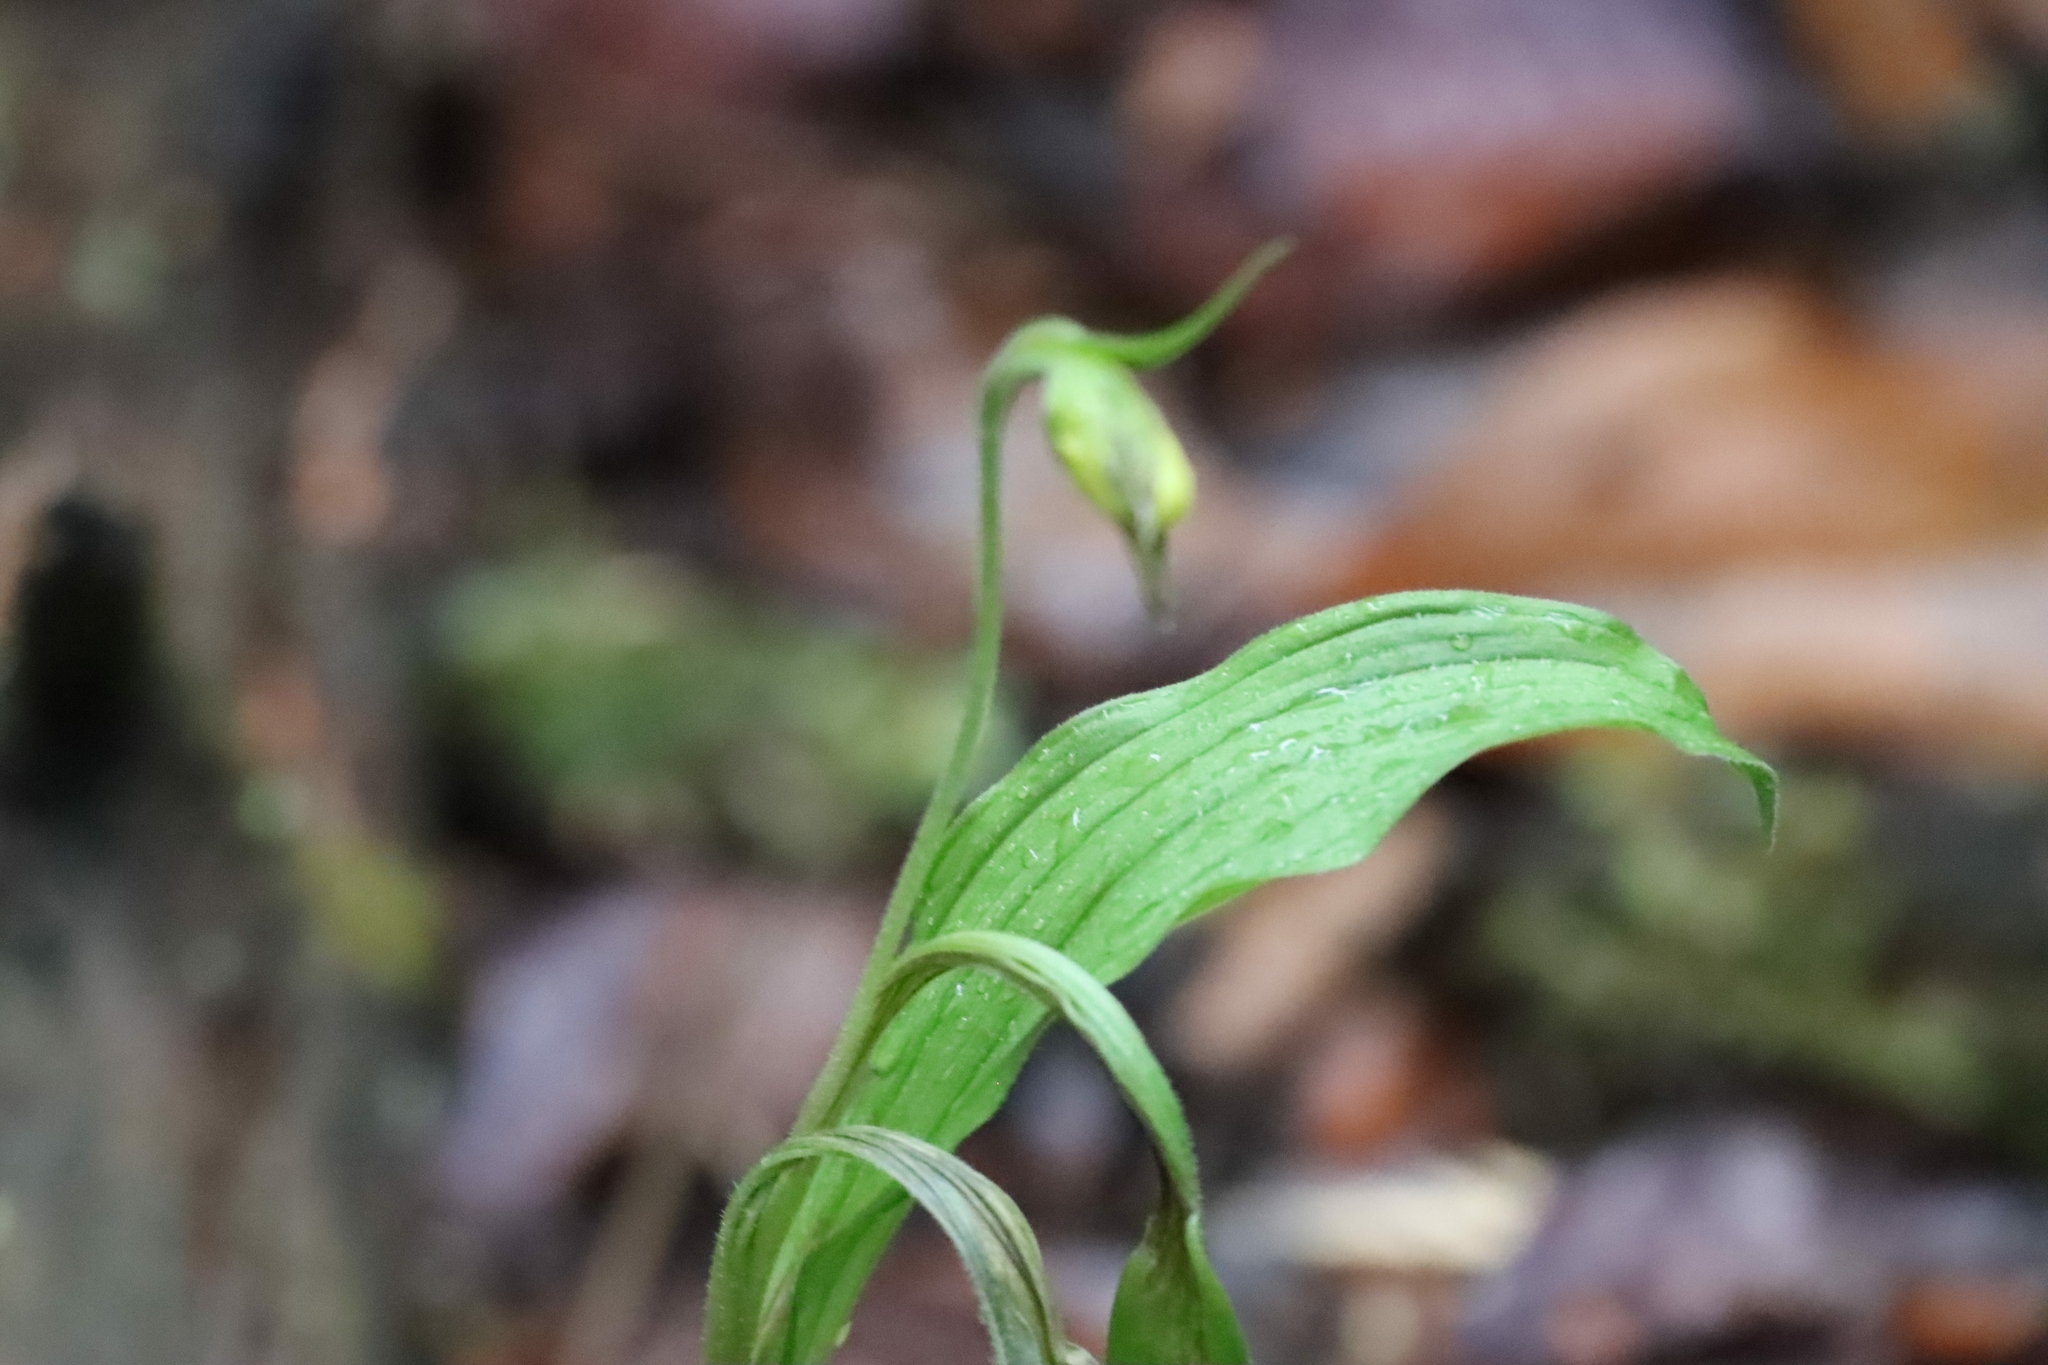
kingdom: Plantae
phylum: Tracheophyta
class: Liliopsida
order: Asparagales
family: Orchidaceae
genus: Cypripedium
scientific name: Cypripedium arietinum
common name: Ram's-head
